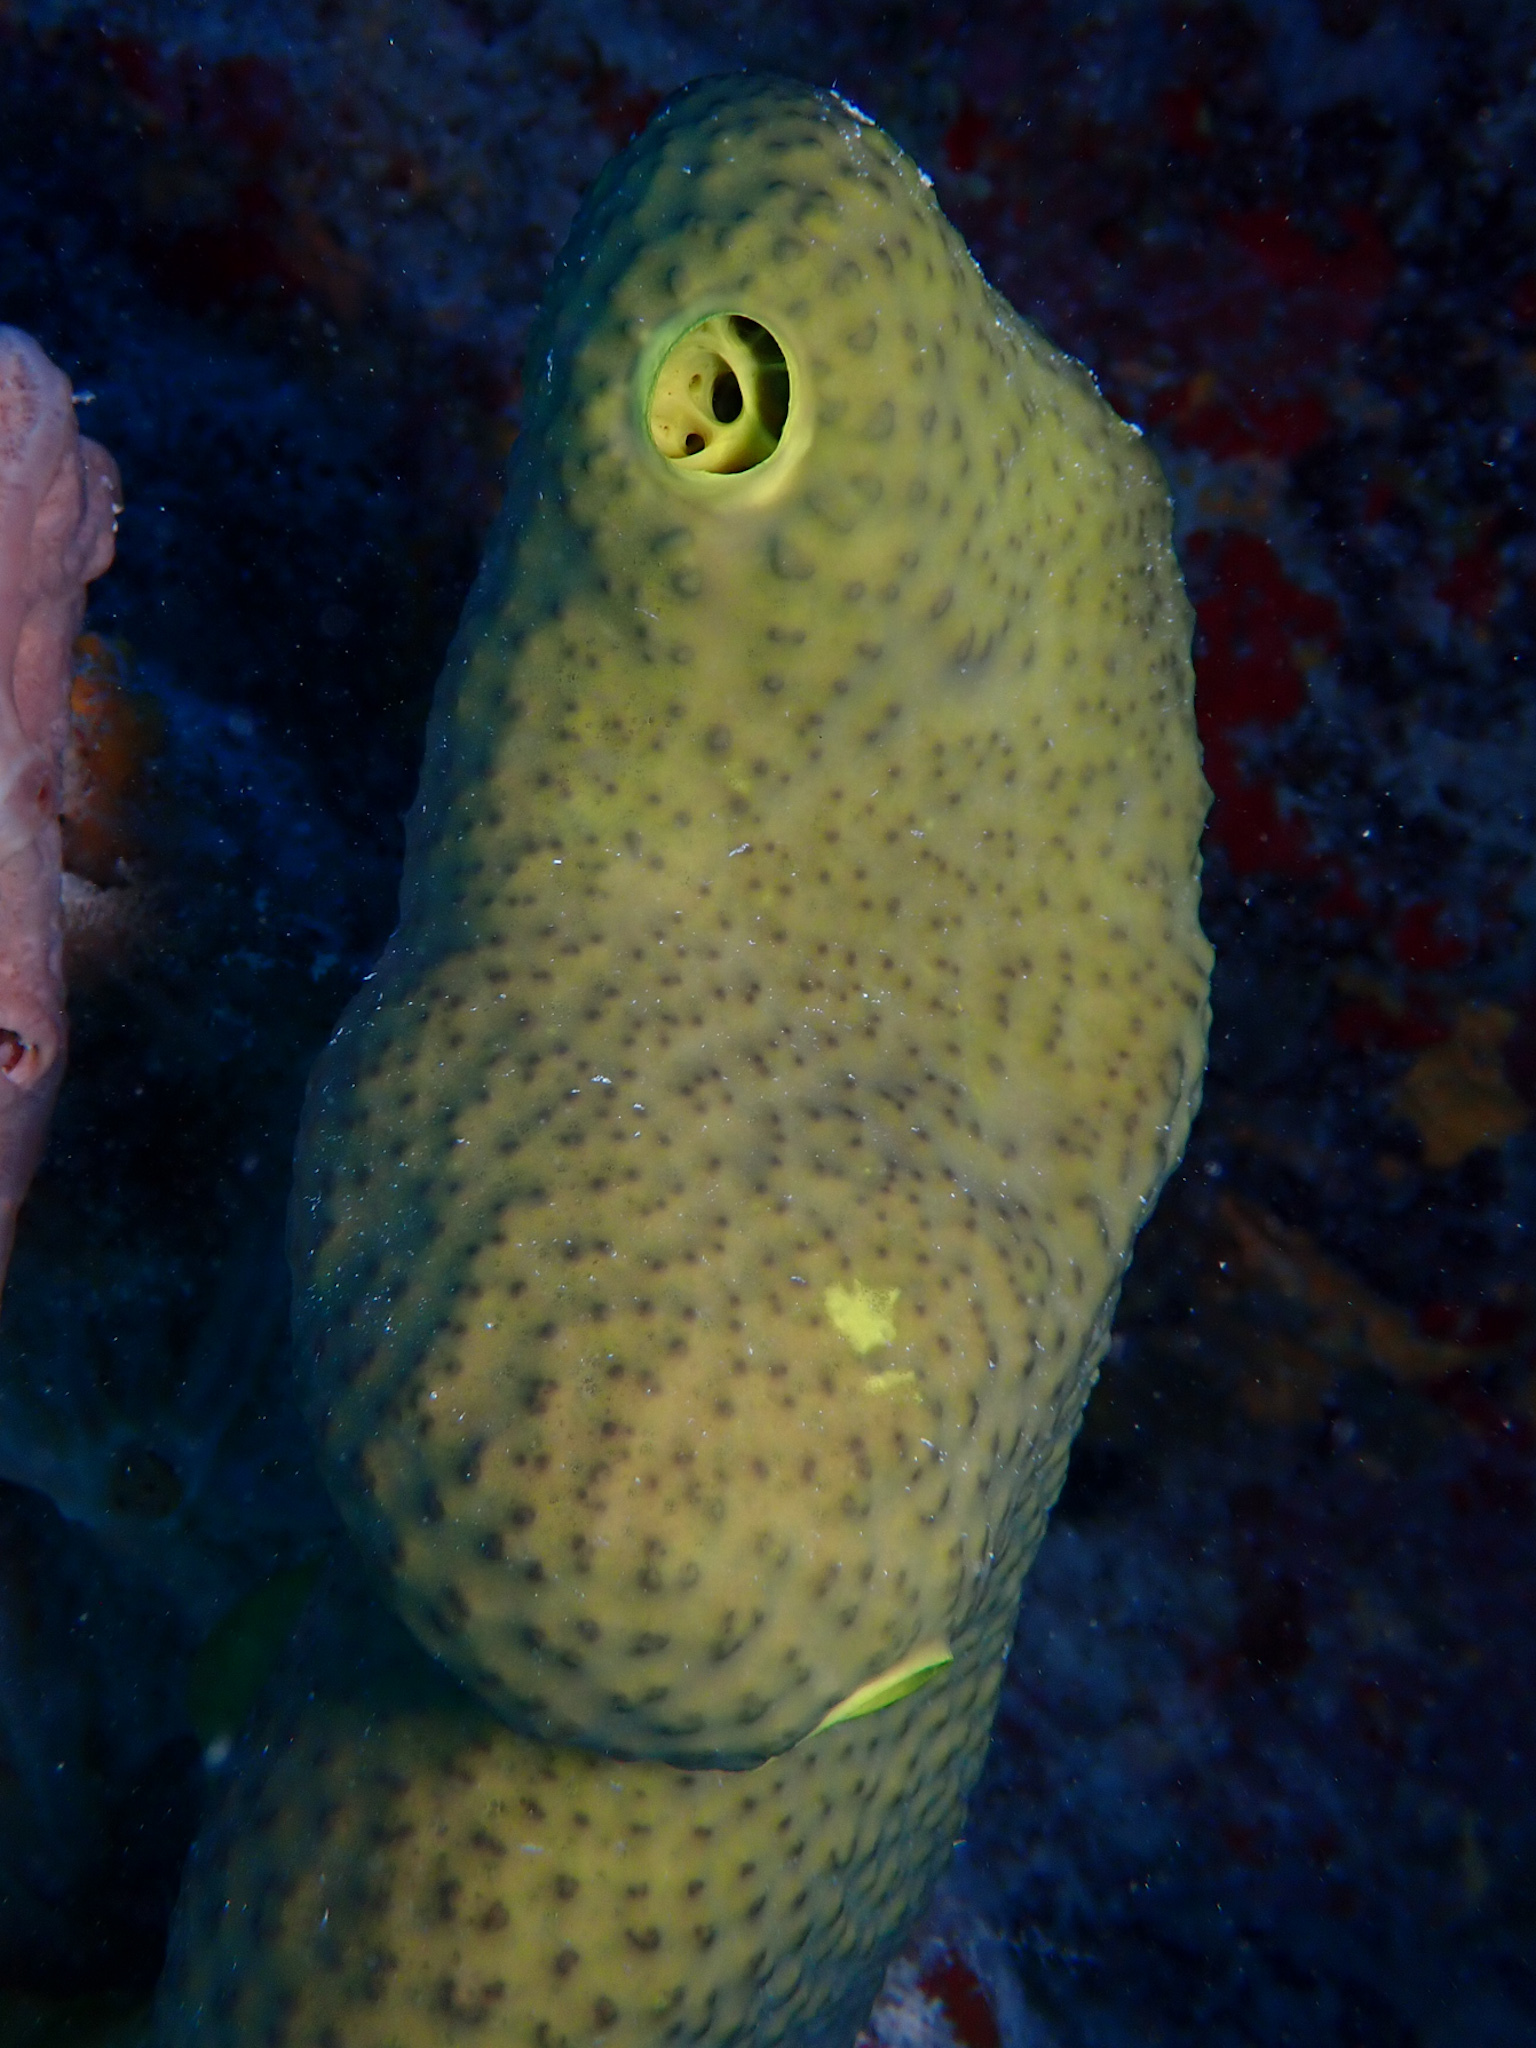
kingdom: Animalia
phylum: Porifera
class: Demospongiae
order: Dictyoceratida
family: Thorectidae
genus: Smenospongia
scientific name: Smenospongia conulosa
